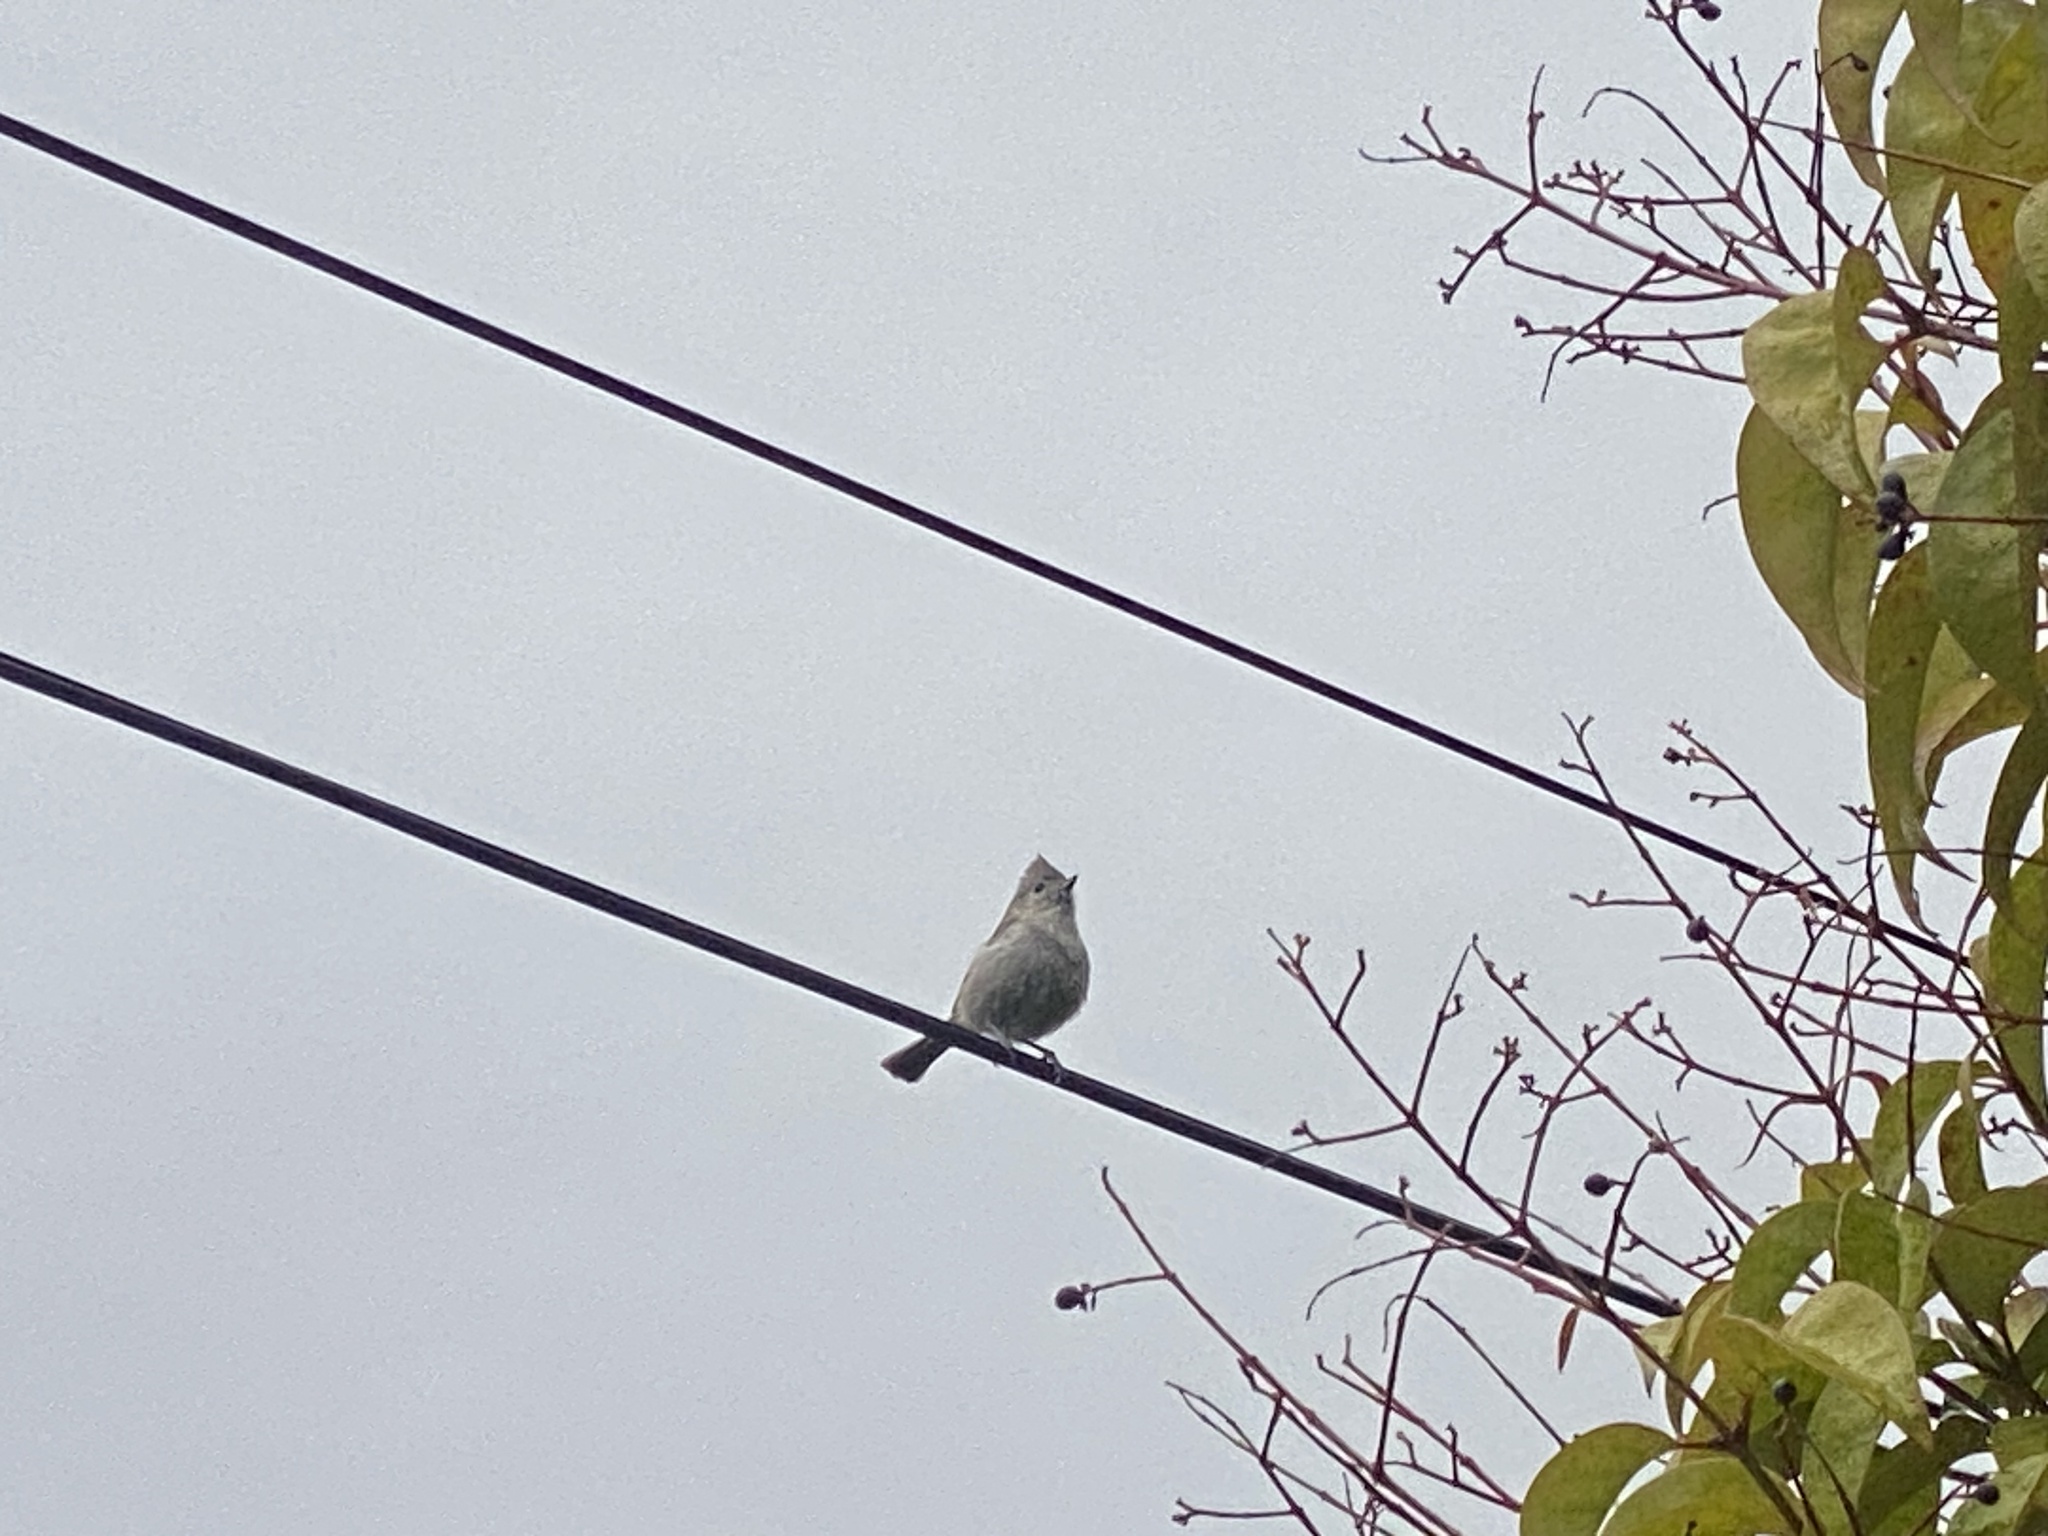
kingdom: Animalia
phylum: Chordata
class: Aves
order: Passeriformes
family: Paridae
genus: Baeolophus
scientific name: Baeolophus inornatus
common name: Oak titmouse
